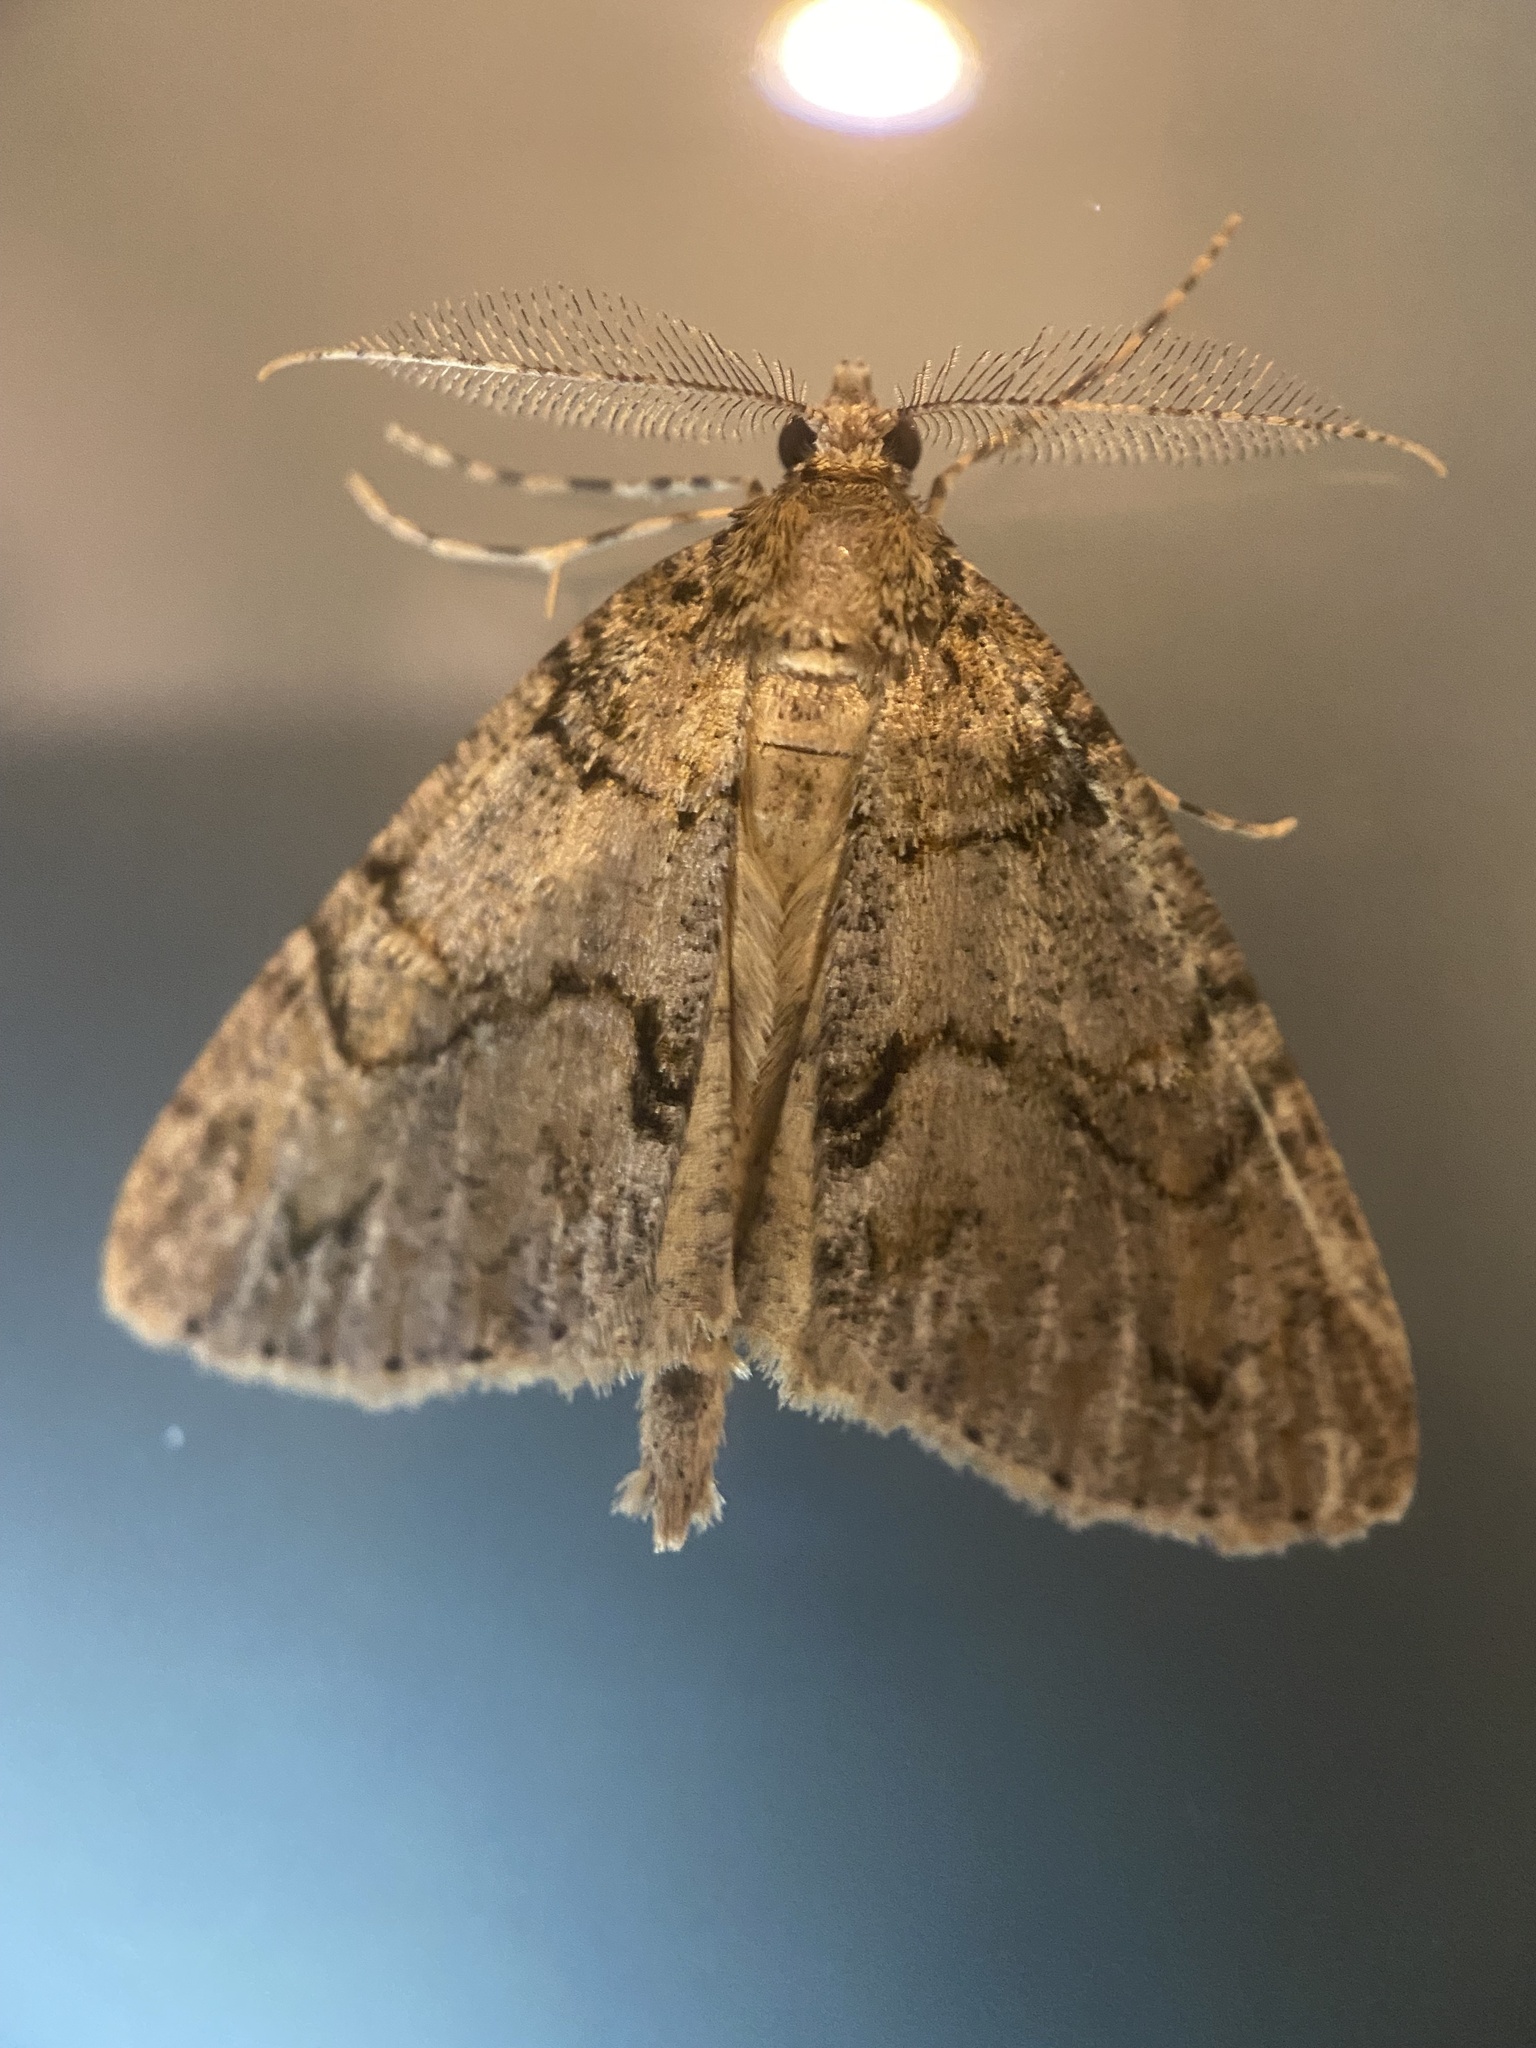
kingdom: Animalia
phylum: Arthropoda
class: Insecta
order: Lepidoptera
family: Geometridae
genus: Pseudocoremia
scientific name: Pseudocoremia suavis
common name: Common forest looper
